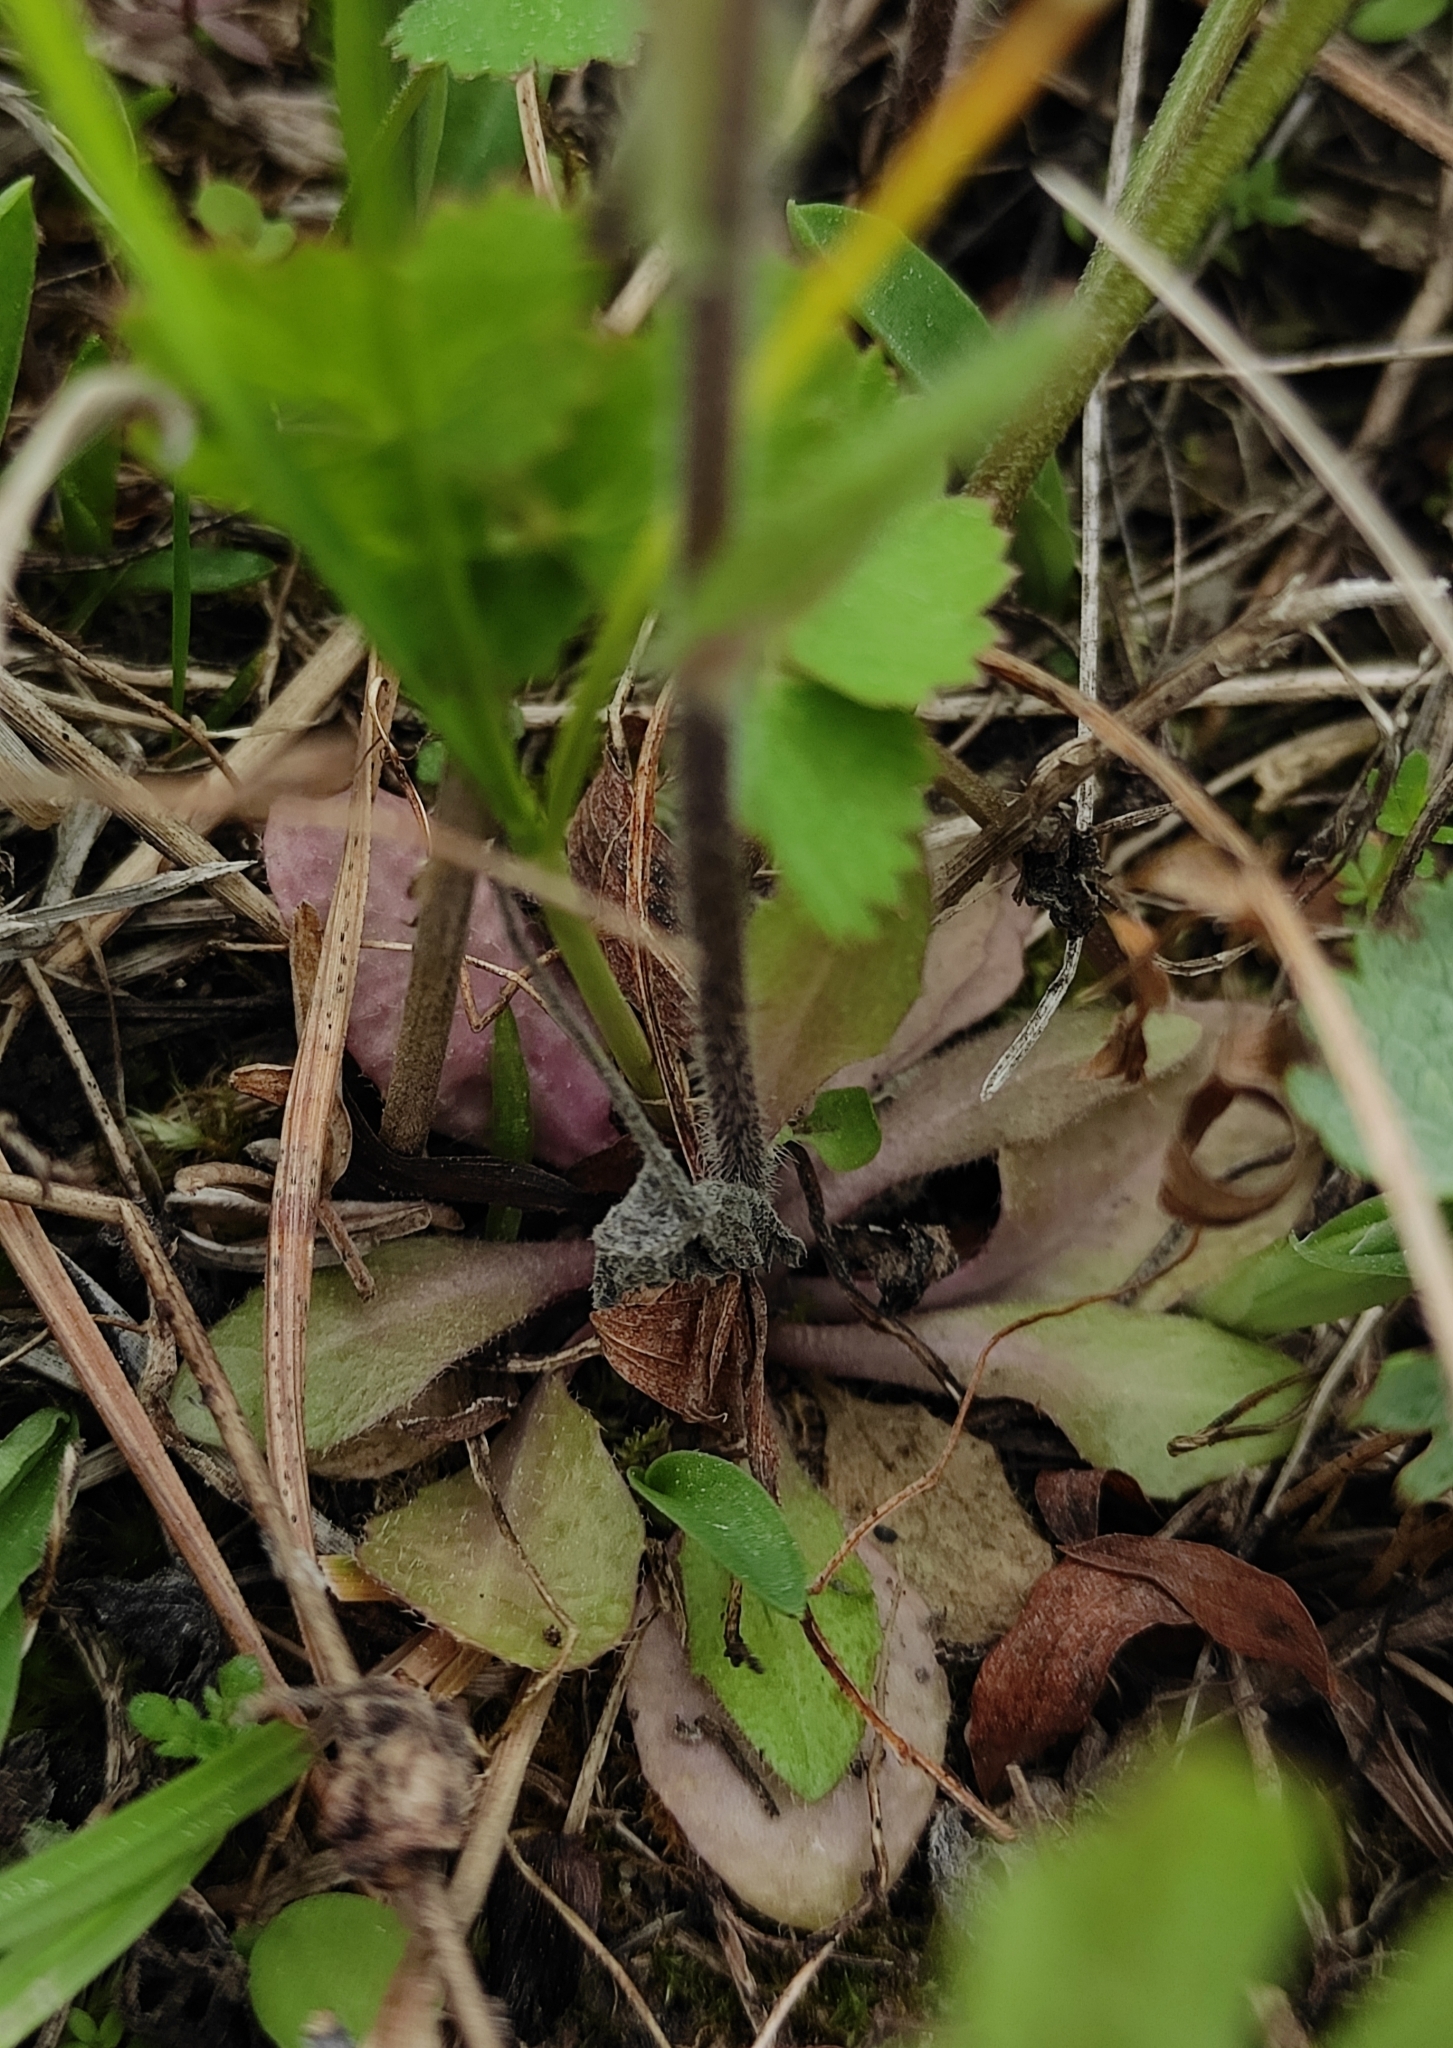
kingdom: Plantae
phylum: Tracheophyta
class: Magnoliopsida
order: Brassicales
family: Brassicaceae
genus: Arabis
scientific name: Arabis borealis
